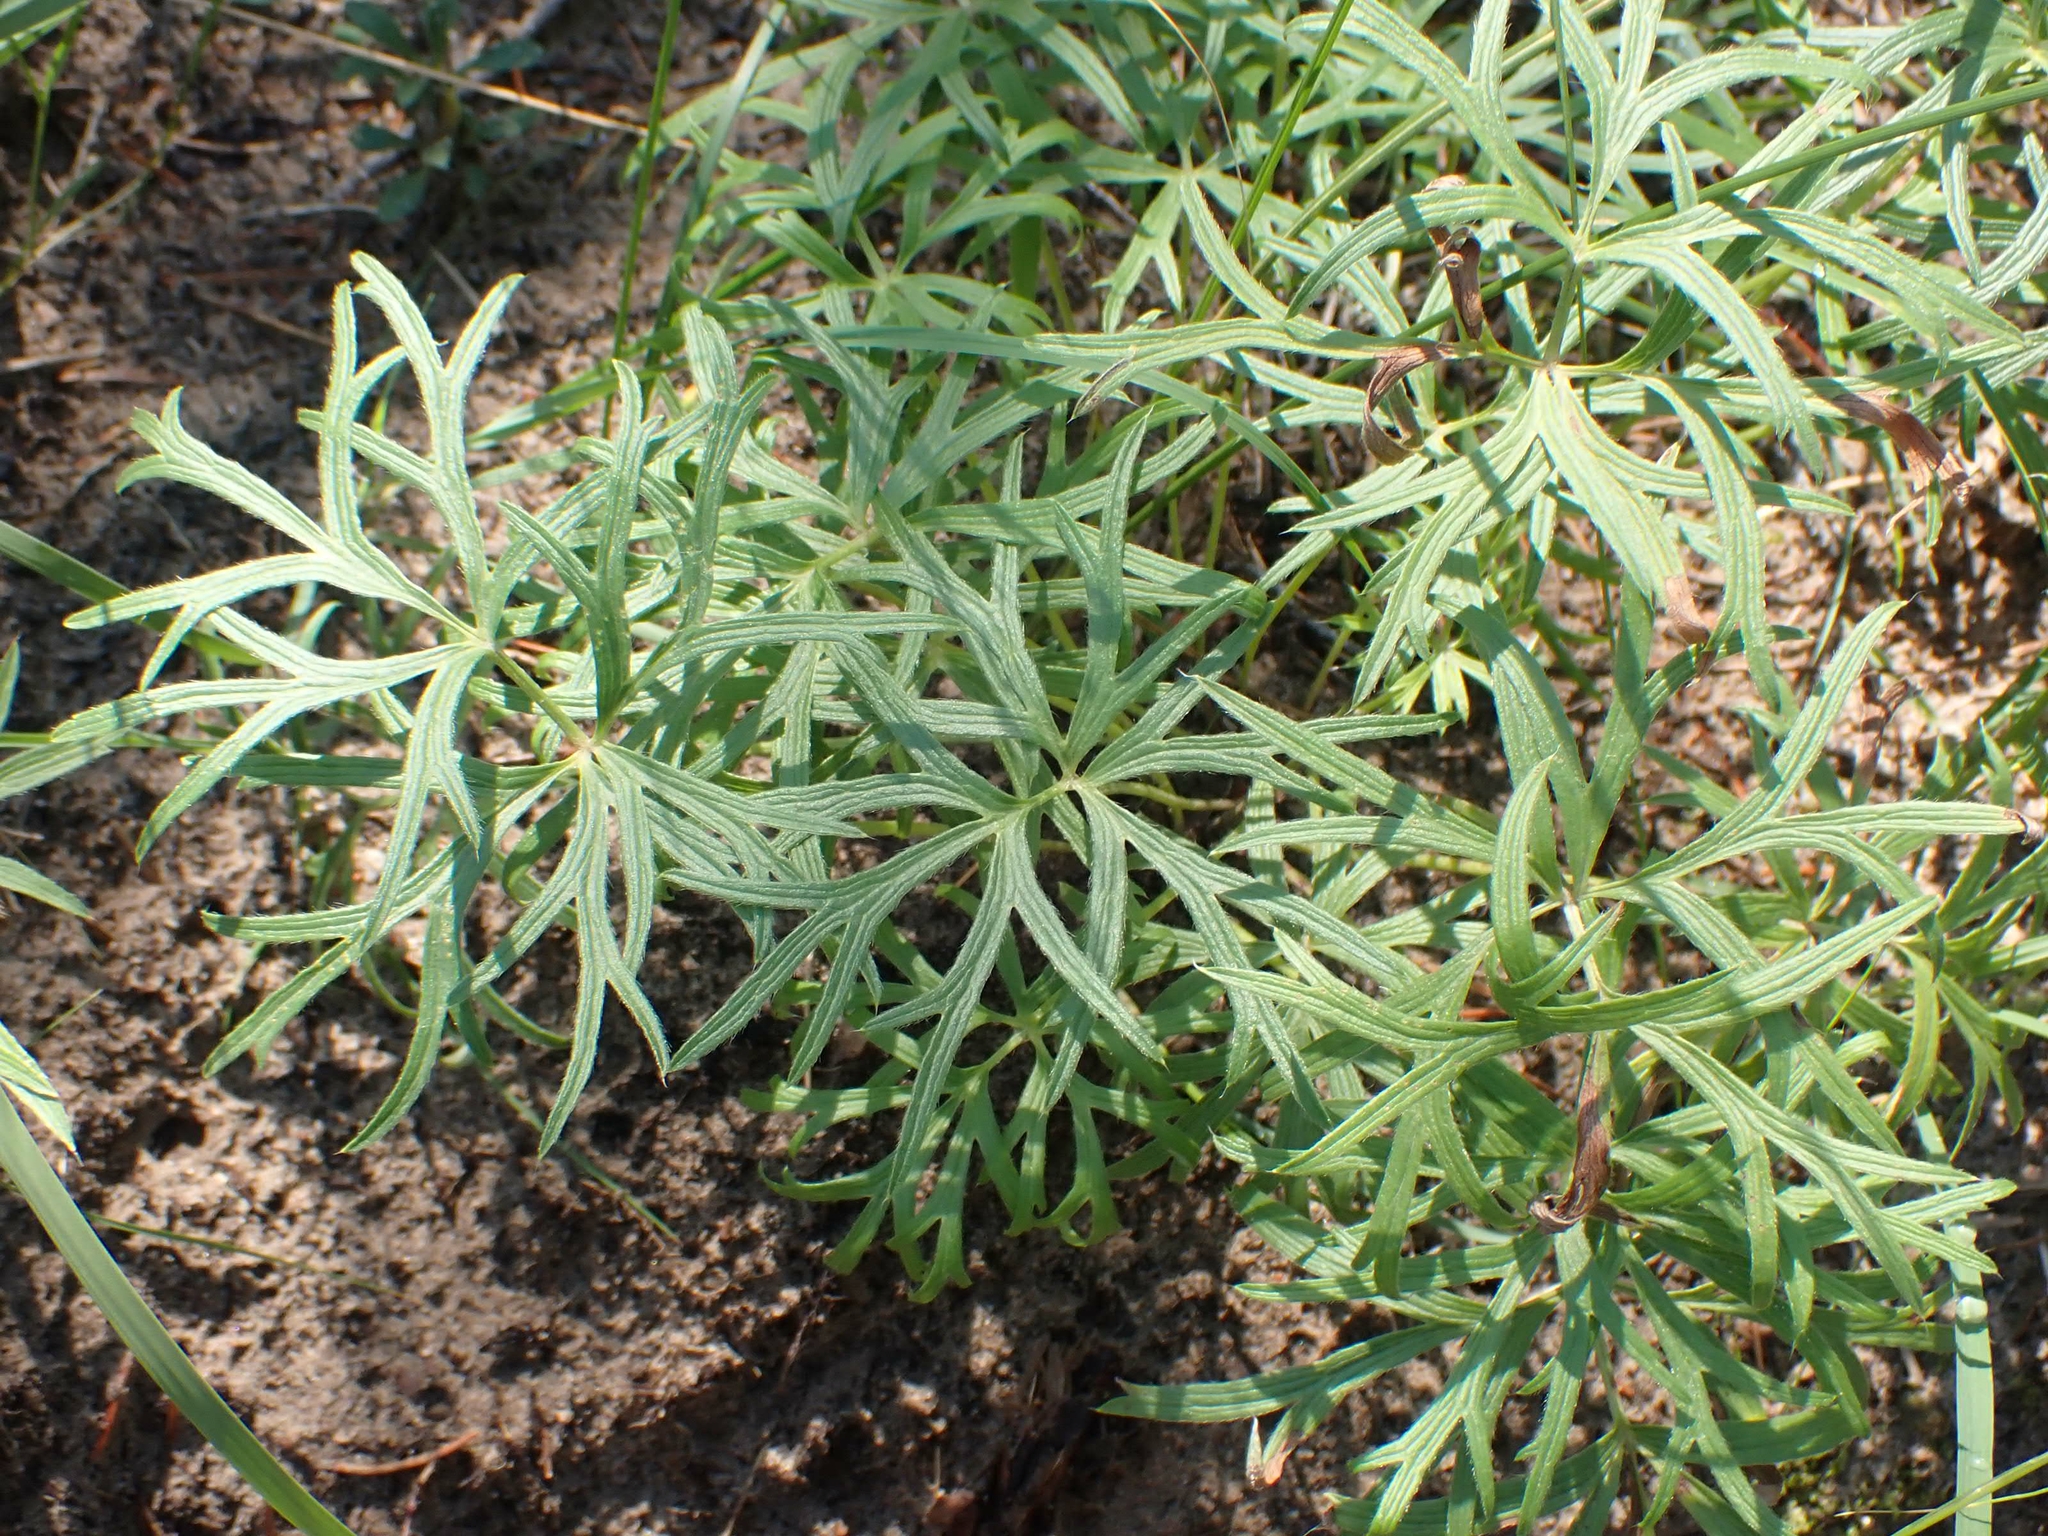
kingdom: Plantae
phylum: Tracheophyta
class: Magnoliopsida
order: Ranunculales
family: Ranunculaceae
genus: Pulsatilla
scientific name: Pulsatilla nuttalliana
